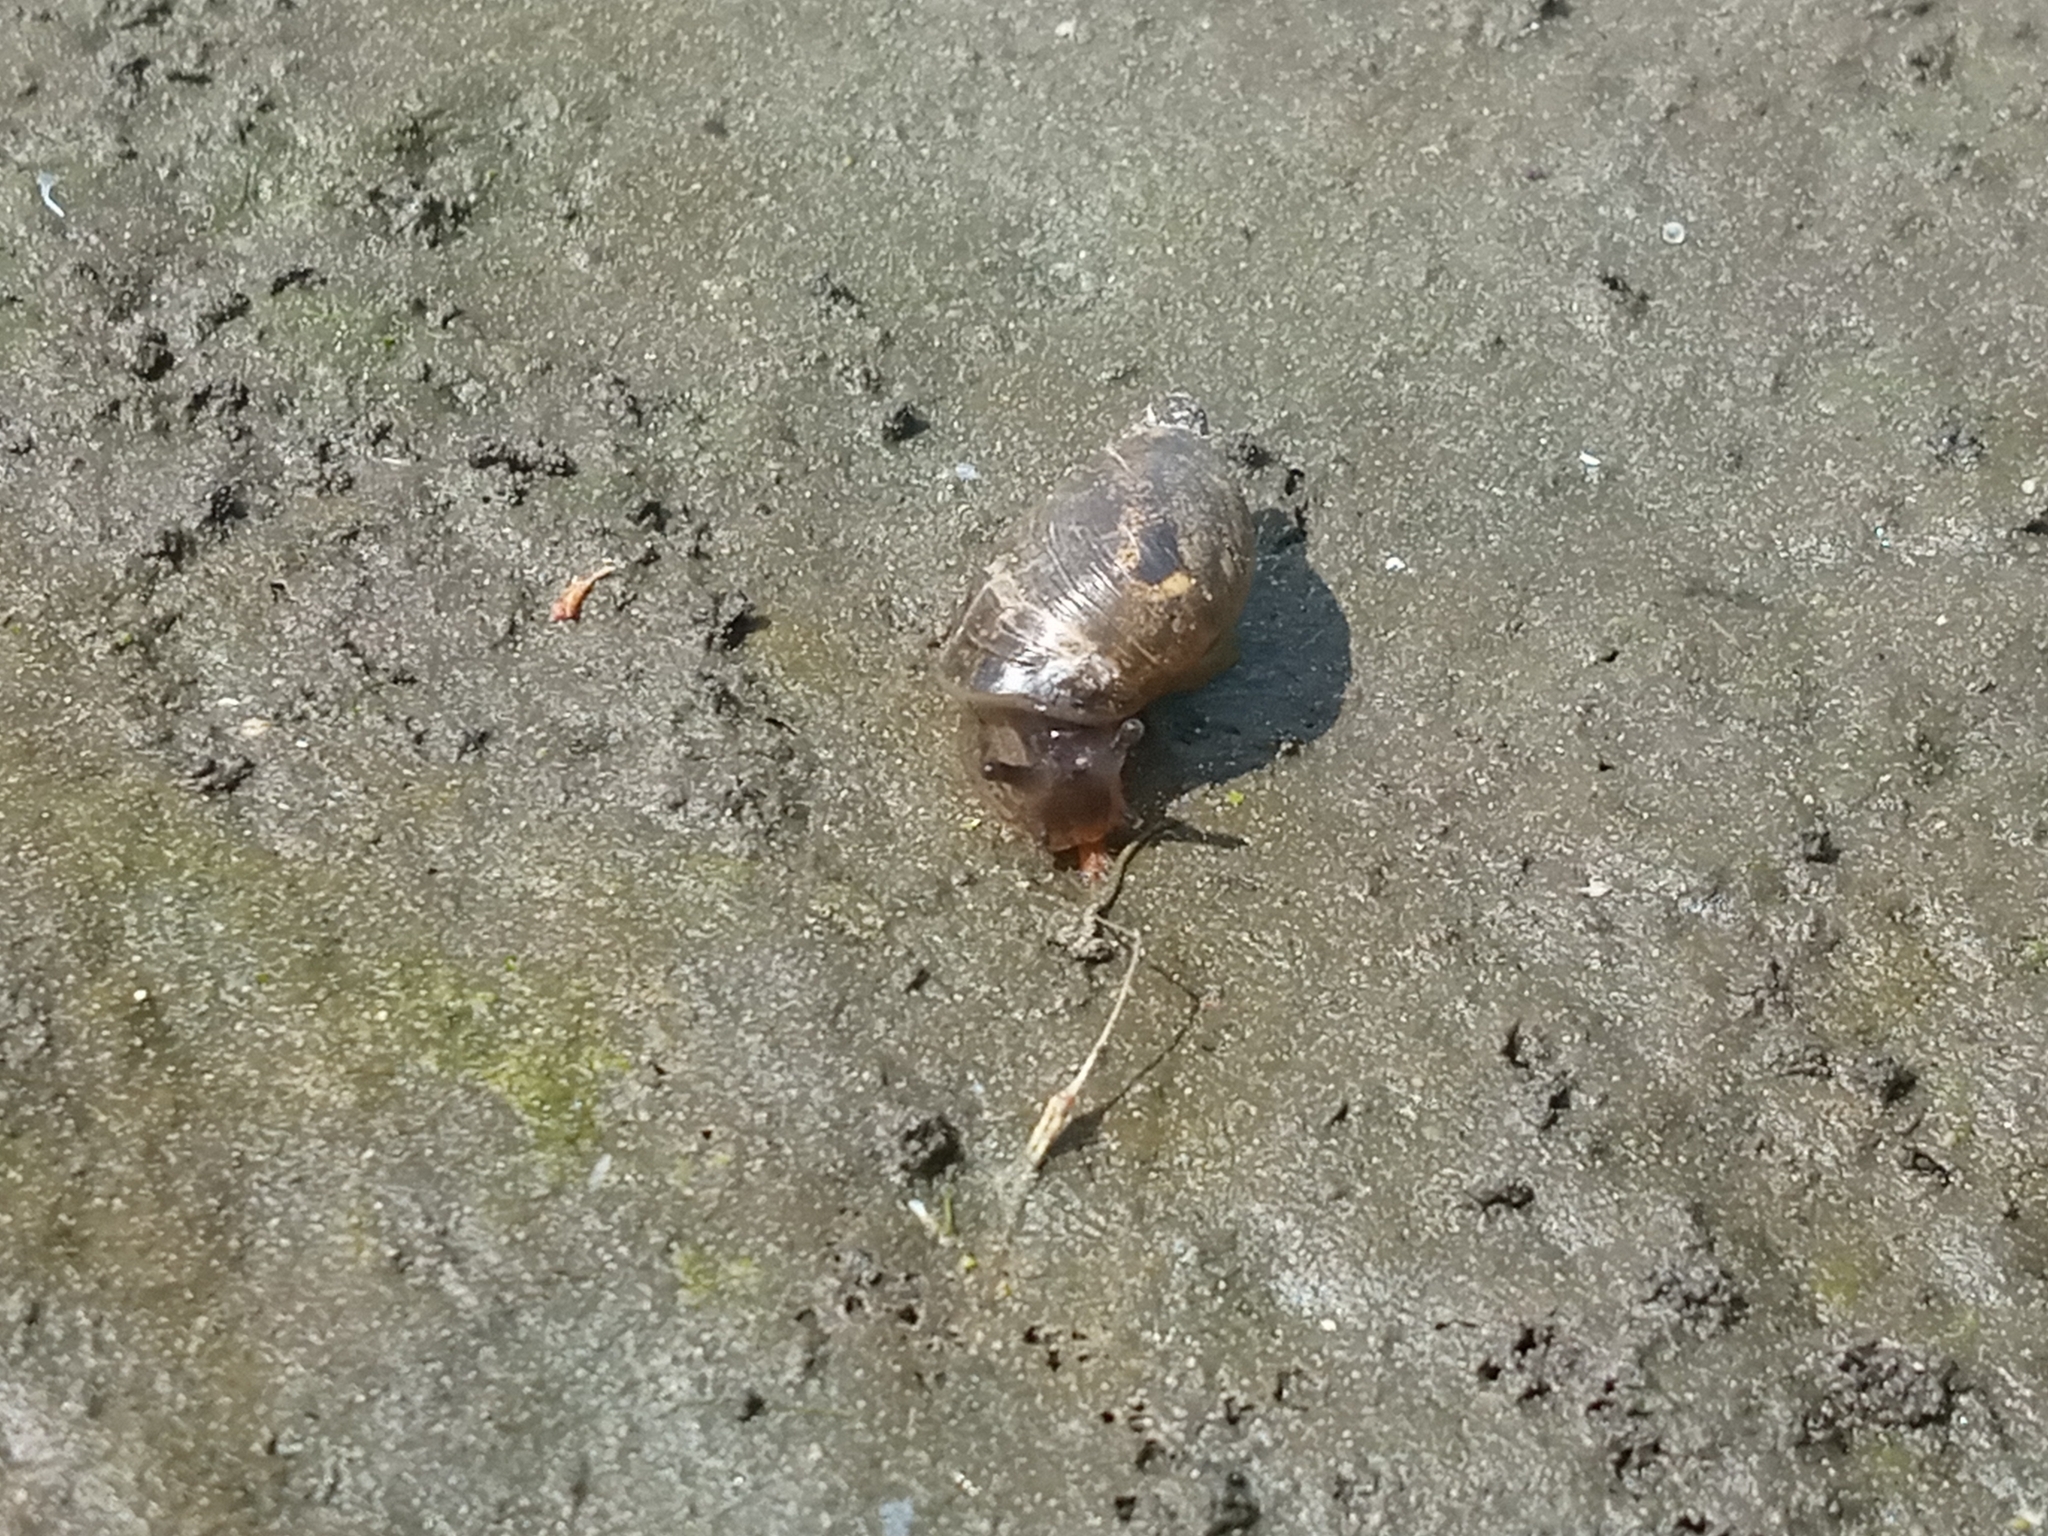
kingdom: Animalia
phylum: Mollusca
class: Gastropoda
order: Stylommatophora
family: Succineidae
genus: Succinea
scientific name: Succinea putris
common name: European ambersnail
